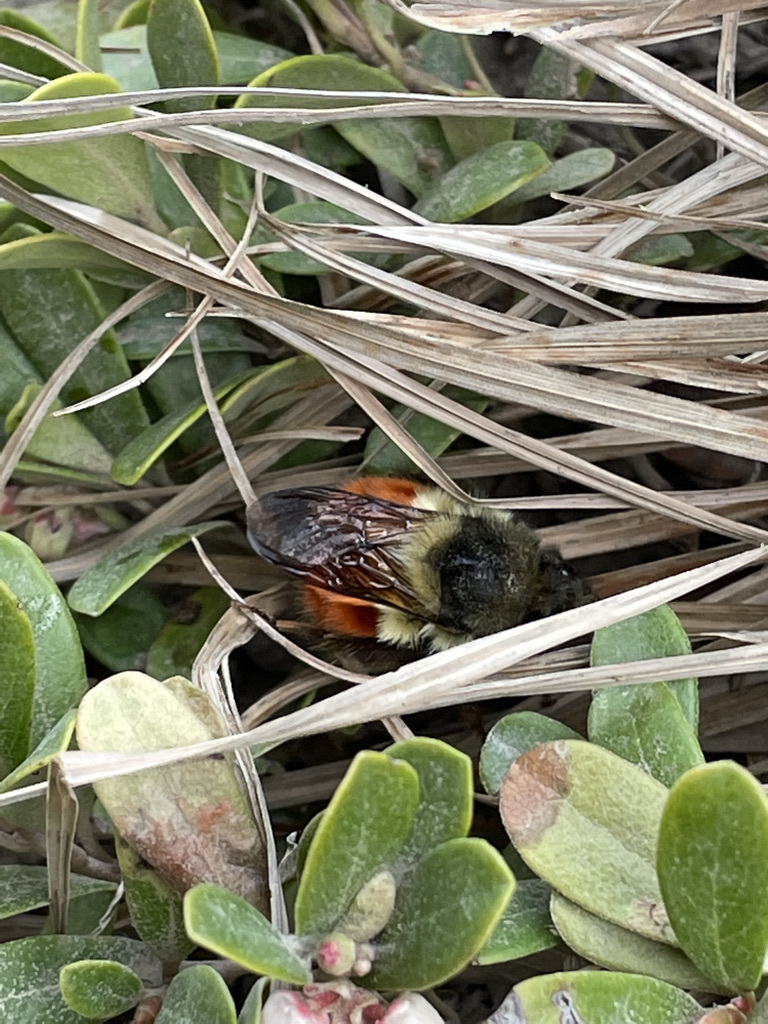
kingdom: Animalia
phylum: Arthropoda
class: Insecta
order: Hymenoptera
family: Apidae
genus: Bombus
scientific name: Bombus melanopygus
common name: Black tail bumble bee
